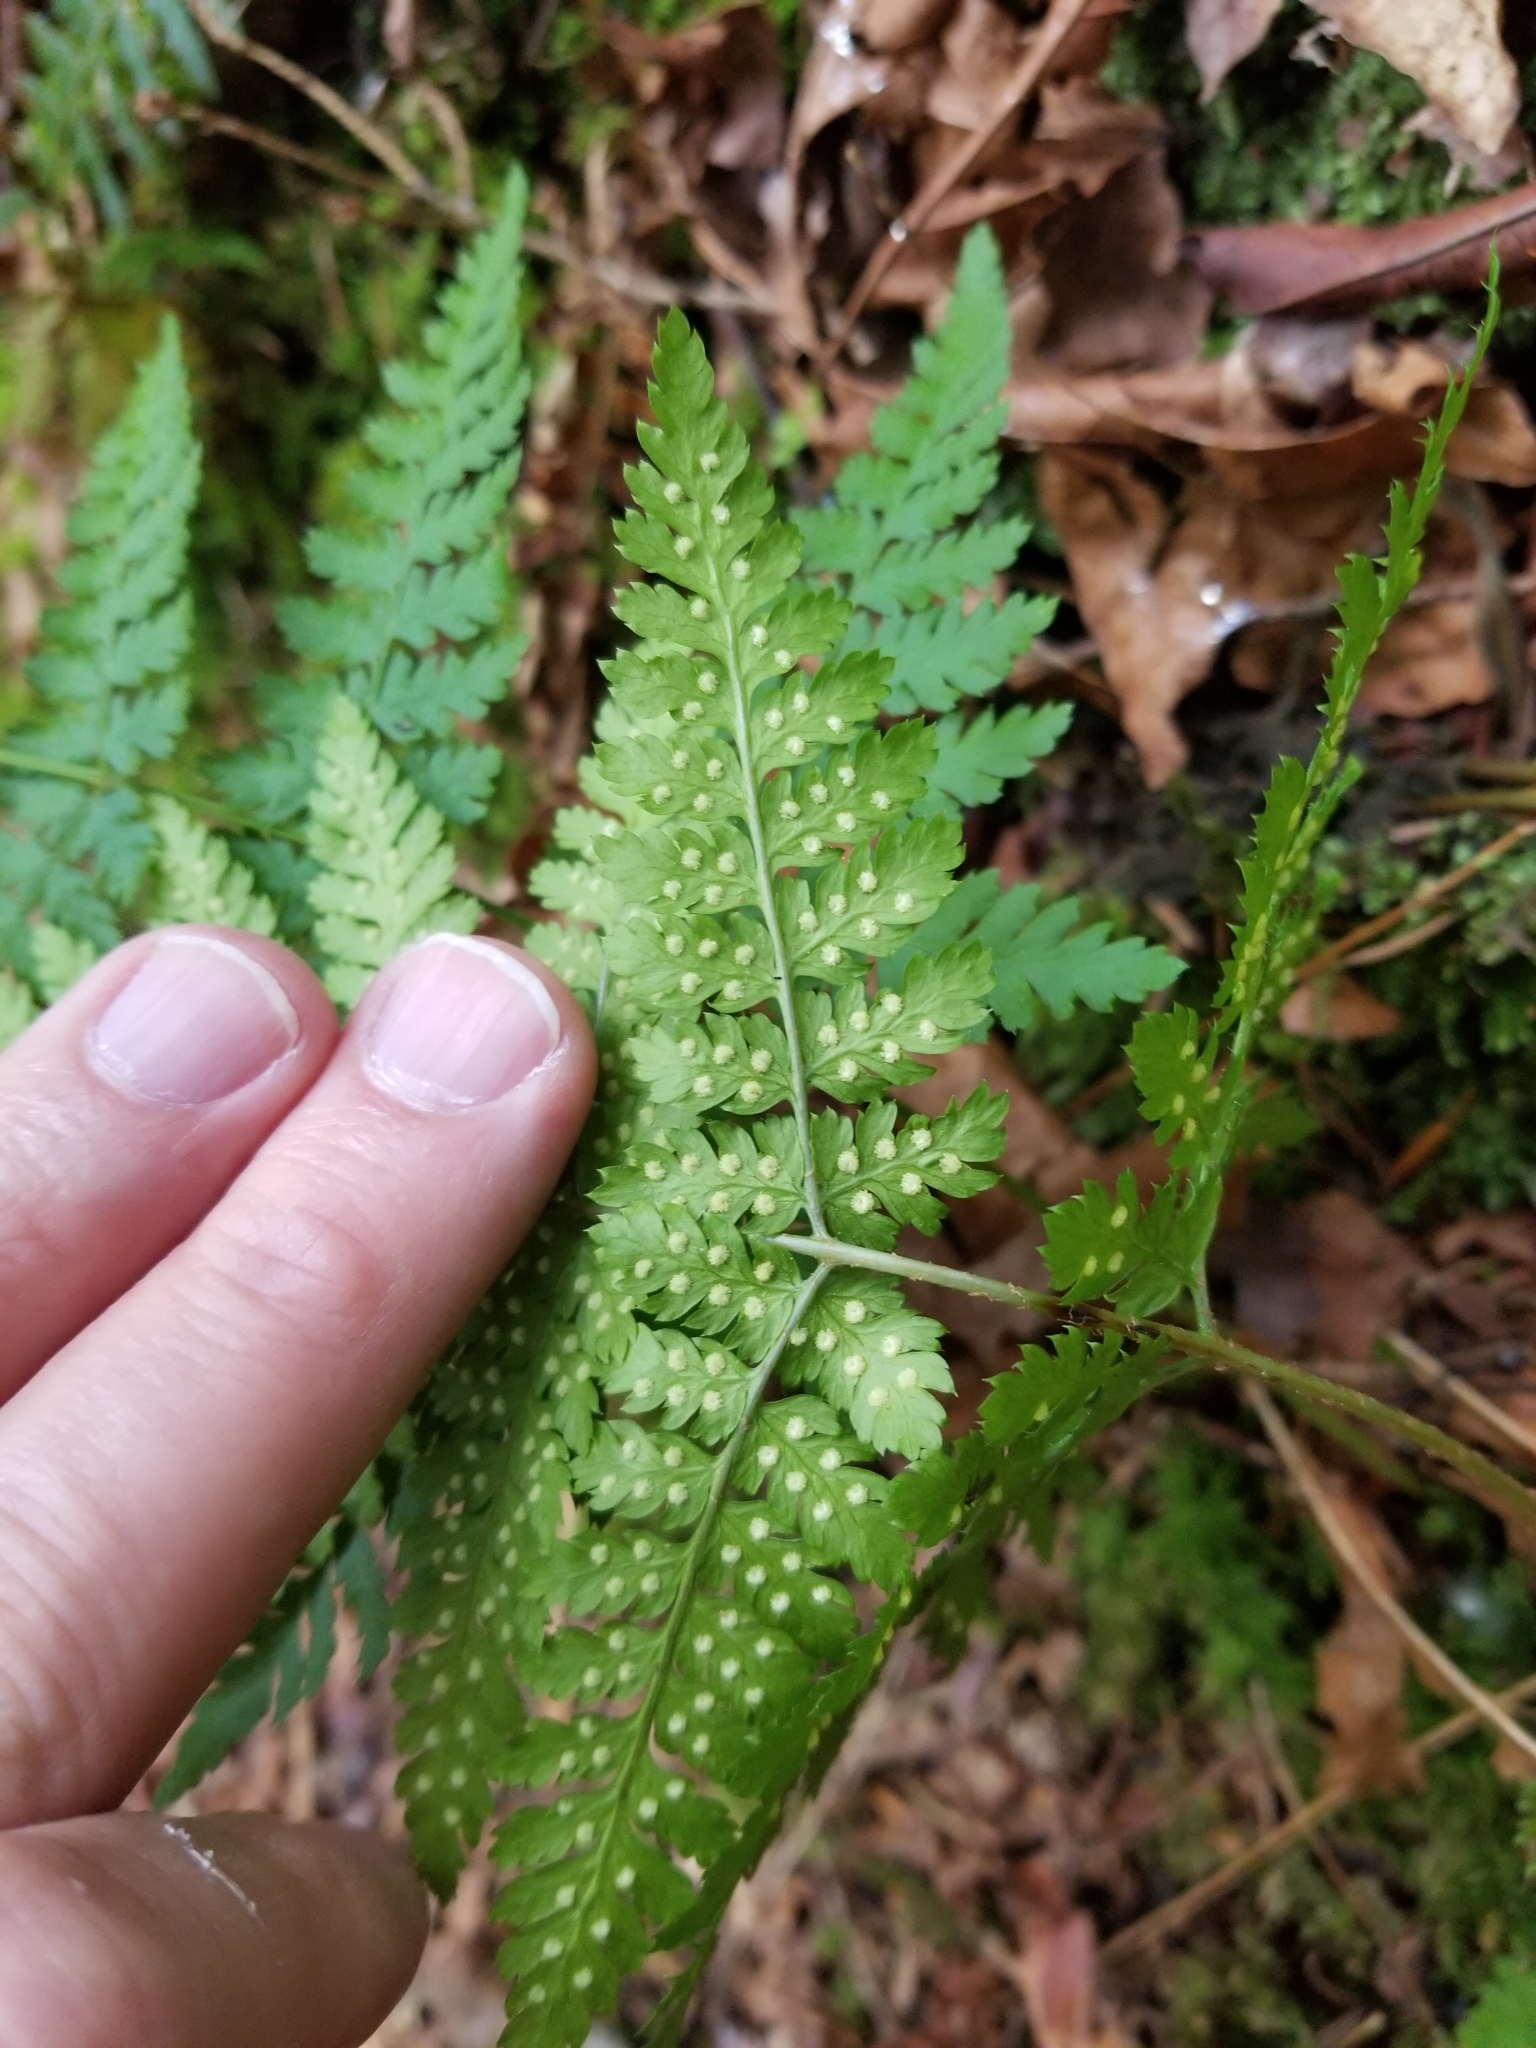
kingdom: Plantae
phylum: Tracheophyta
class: Polypodiopsida
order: Polypodiales
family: Dryopteridaceae
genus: Dryopteris
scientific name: Dryopteris expansa
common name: Northern buckler fern
